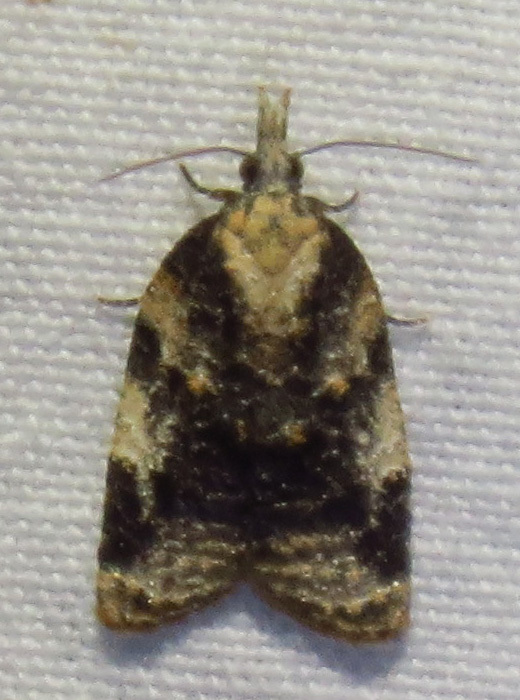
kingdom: Animalia
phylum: Arthropoda
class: Insecta
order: Lepidoptera
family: Tortricidae
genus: Platynota
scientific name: Platynota exasperatana
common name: Exasperating platynota moth
